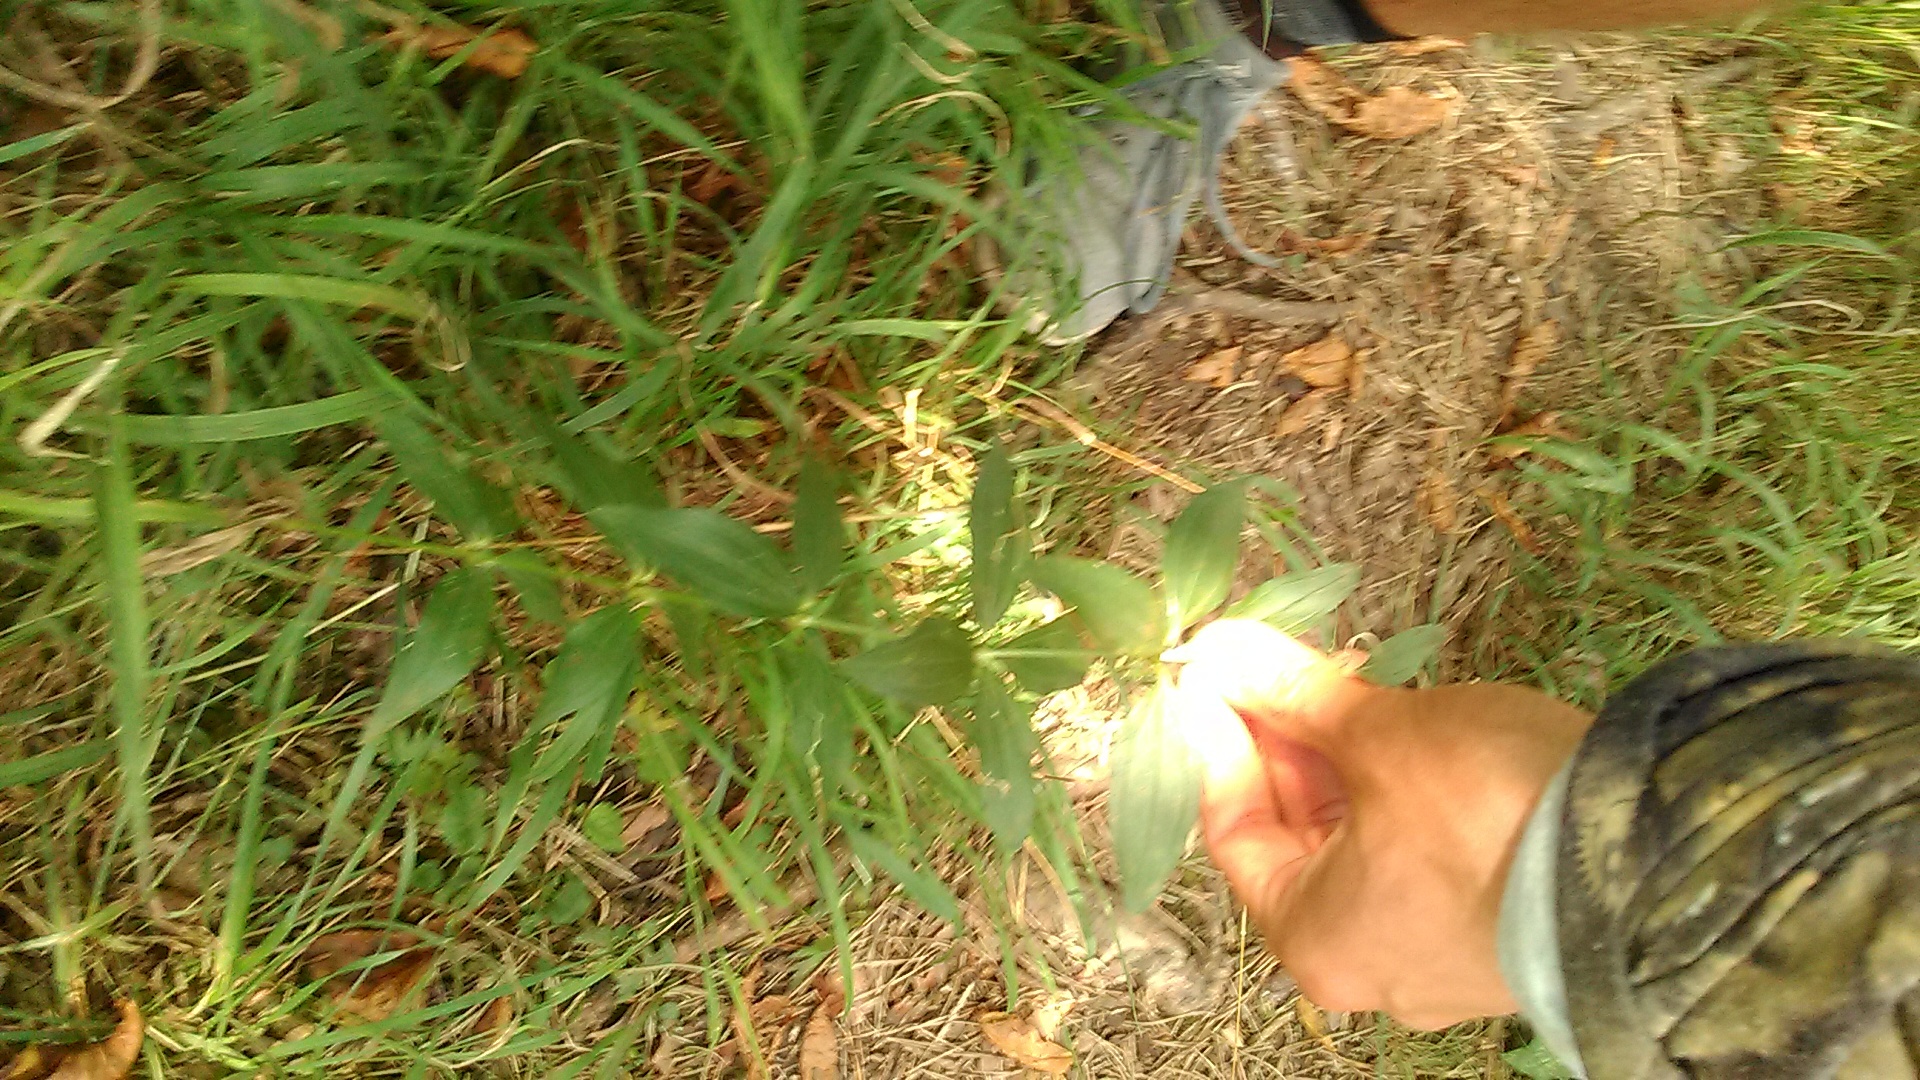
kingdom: Plantae
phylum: Tracheophyta
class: Magnoliopsida
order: Gentianales
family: Rubiaceae
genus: Galium
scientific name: Galium valantioides
